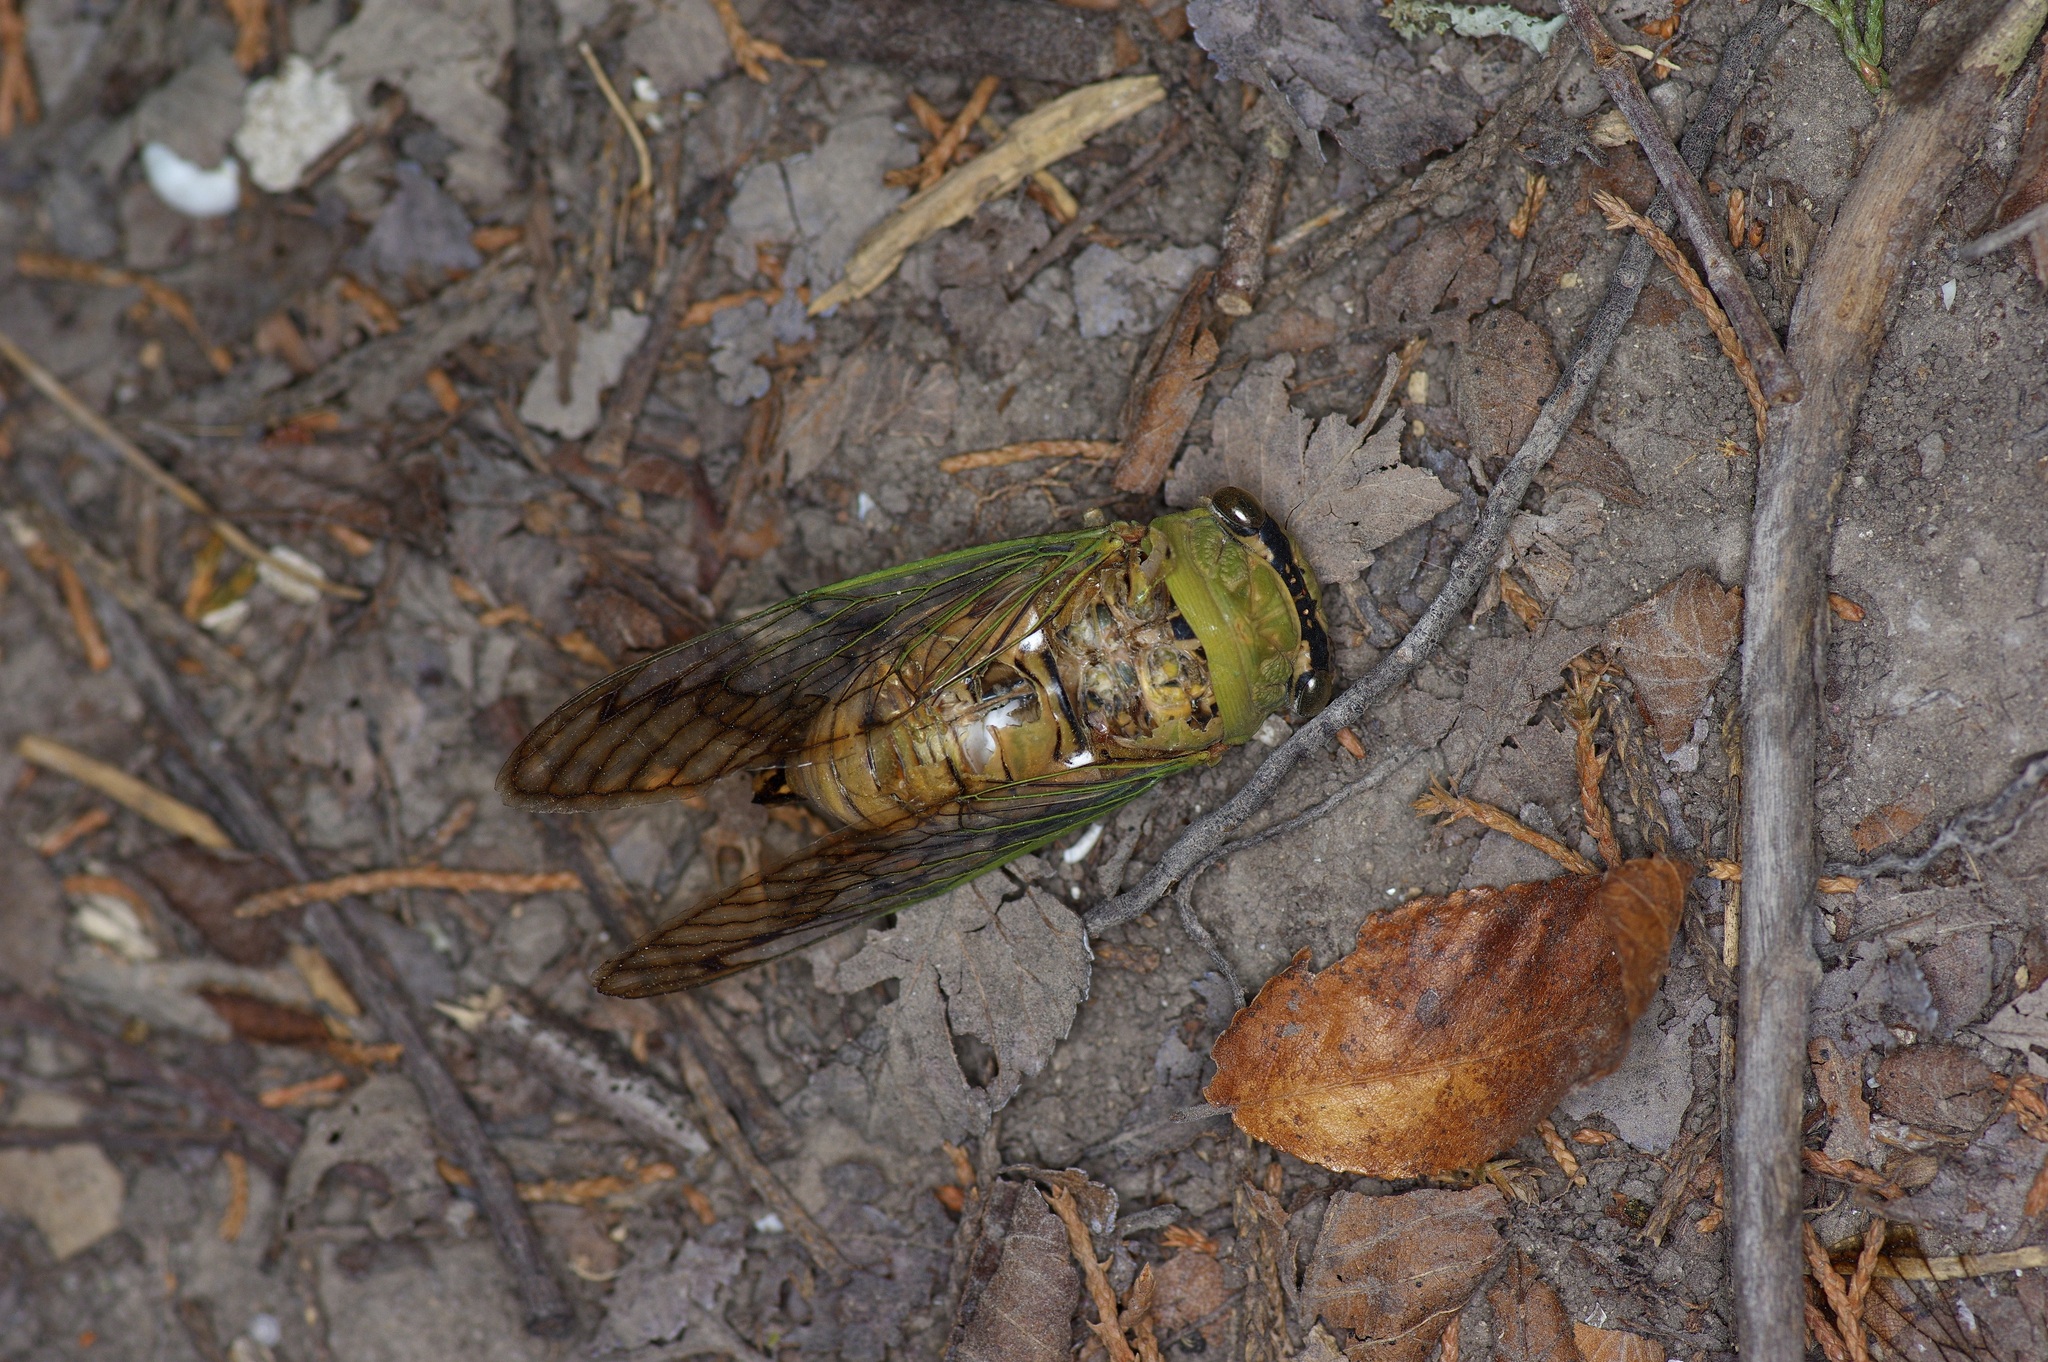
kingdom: Animalia
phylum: Arthropoda
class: Insecta
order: Hemiptera
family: Cicadidae
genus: Neotibicen
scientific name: Neotibicen superbus
